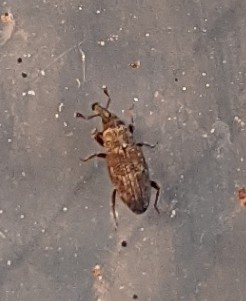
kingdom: Animalia
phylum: Arthropoda
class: Insecta
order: Coleoptera
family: Dryophthoridae
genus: Dryophthorus
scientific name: Dryophthorus americanus
